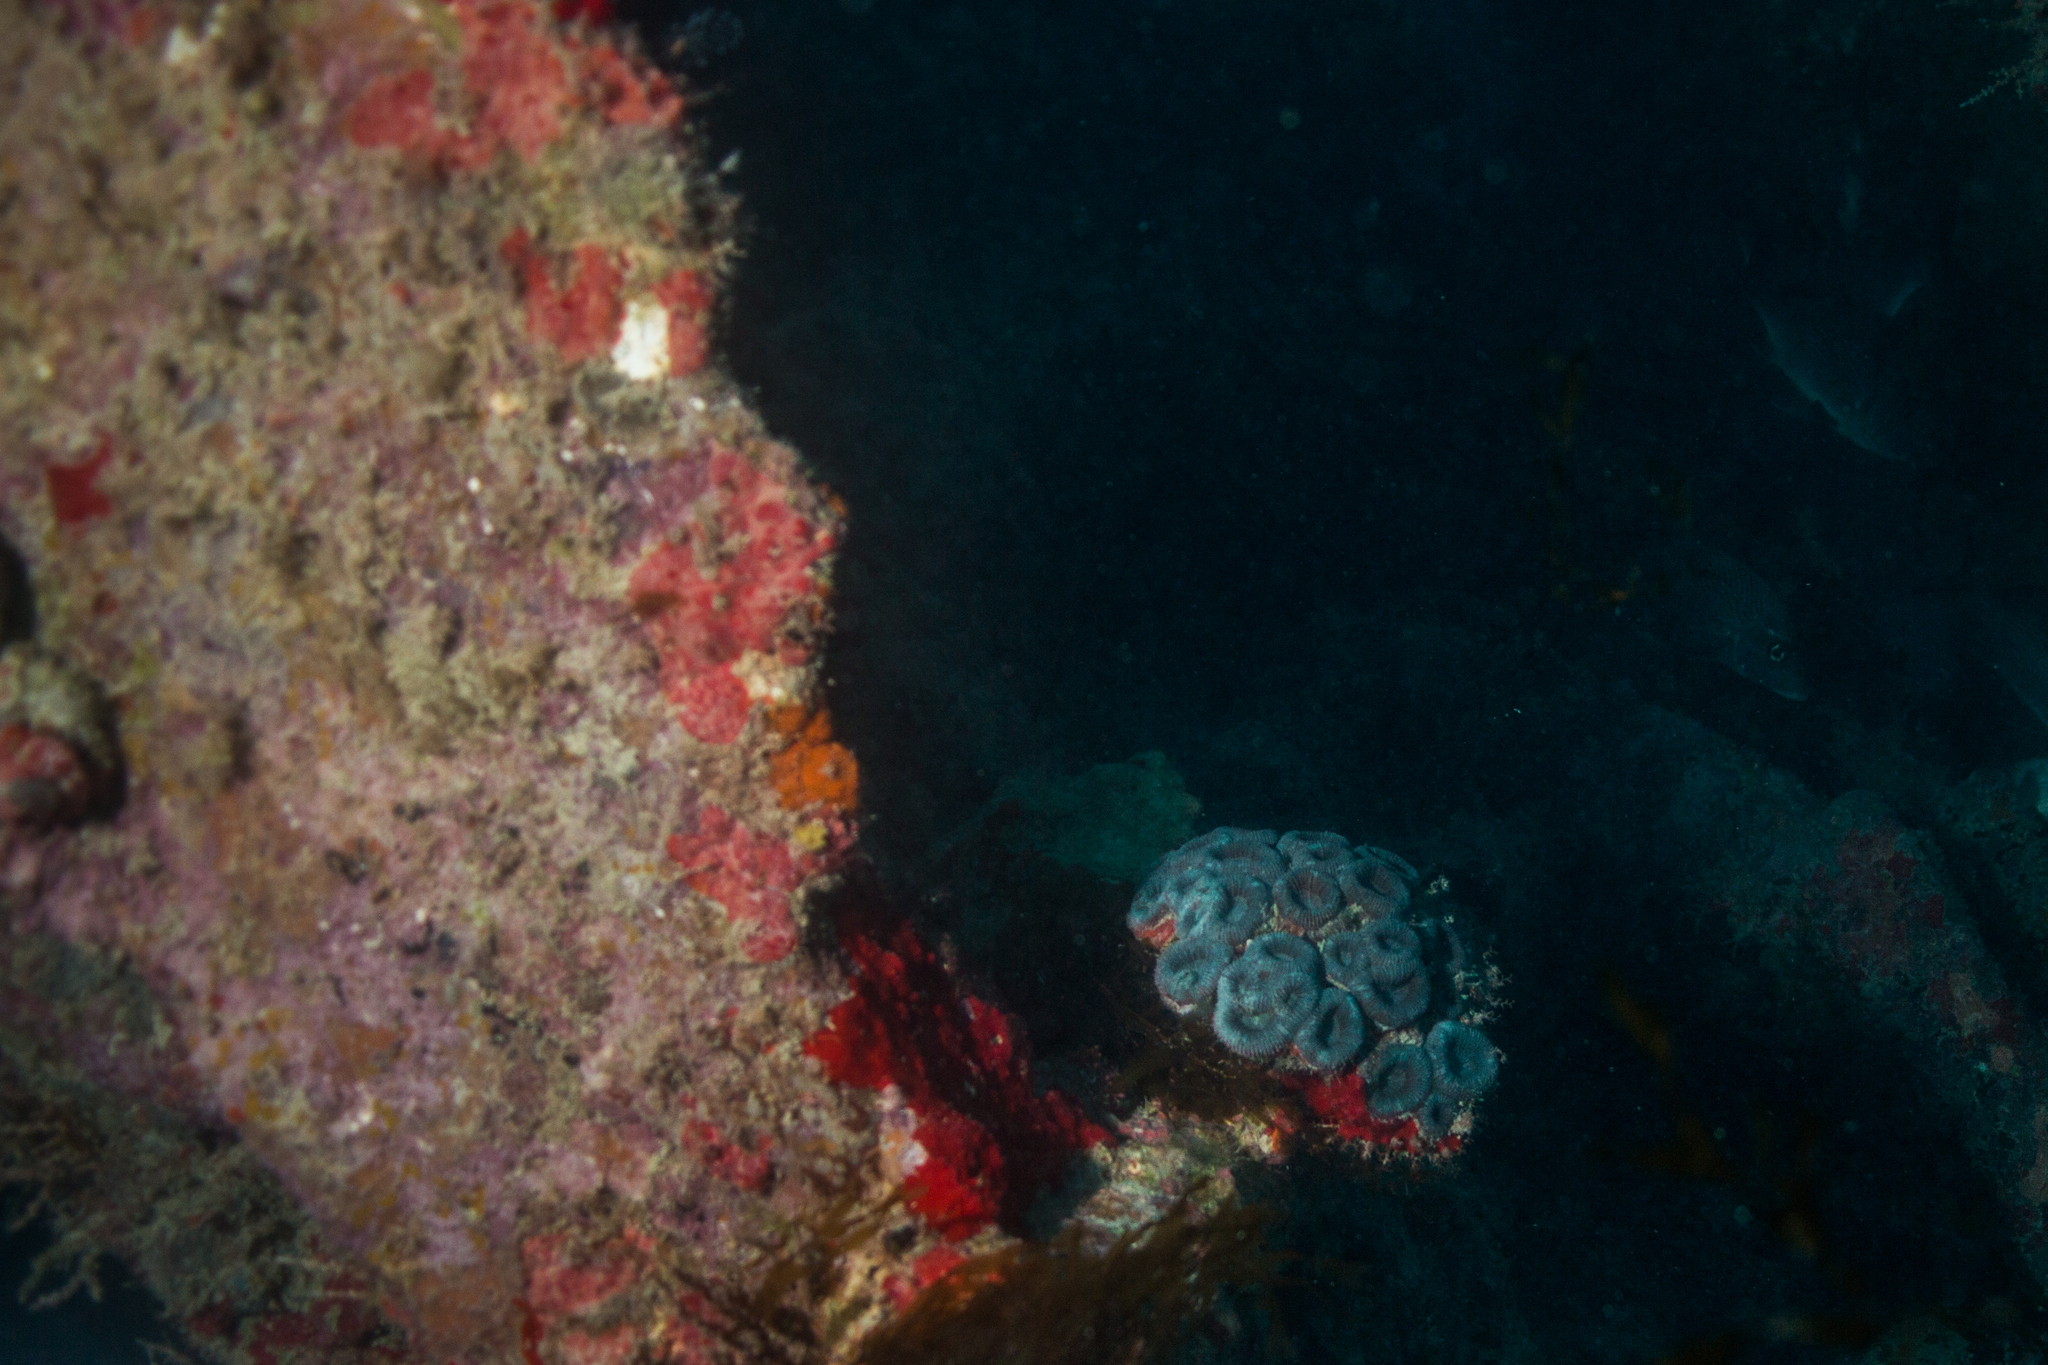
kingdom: Animalia
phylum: Cnidaria
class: Anthozoa
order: Scleractinia
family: Faviidae
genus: Mussismilia
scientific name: Mussismilia harttii
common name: Brain coral
